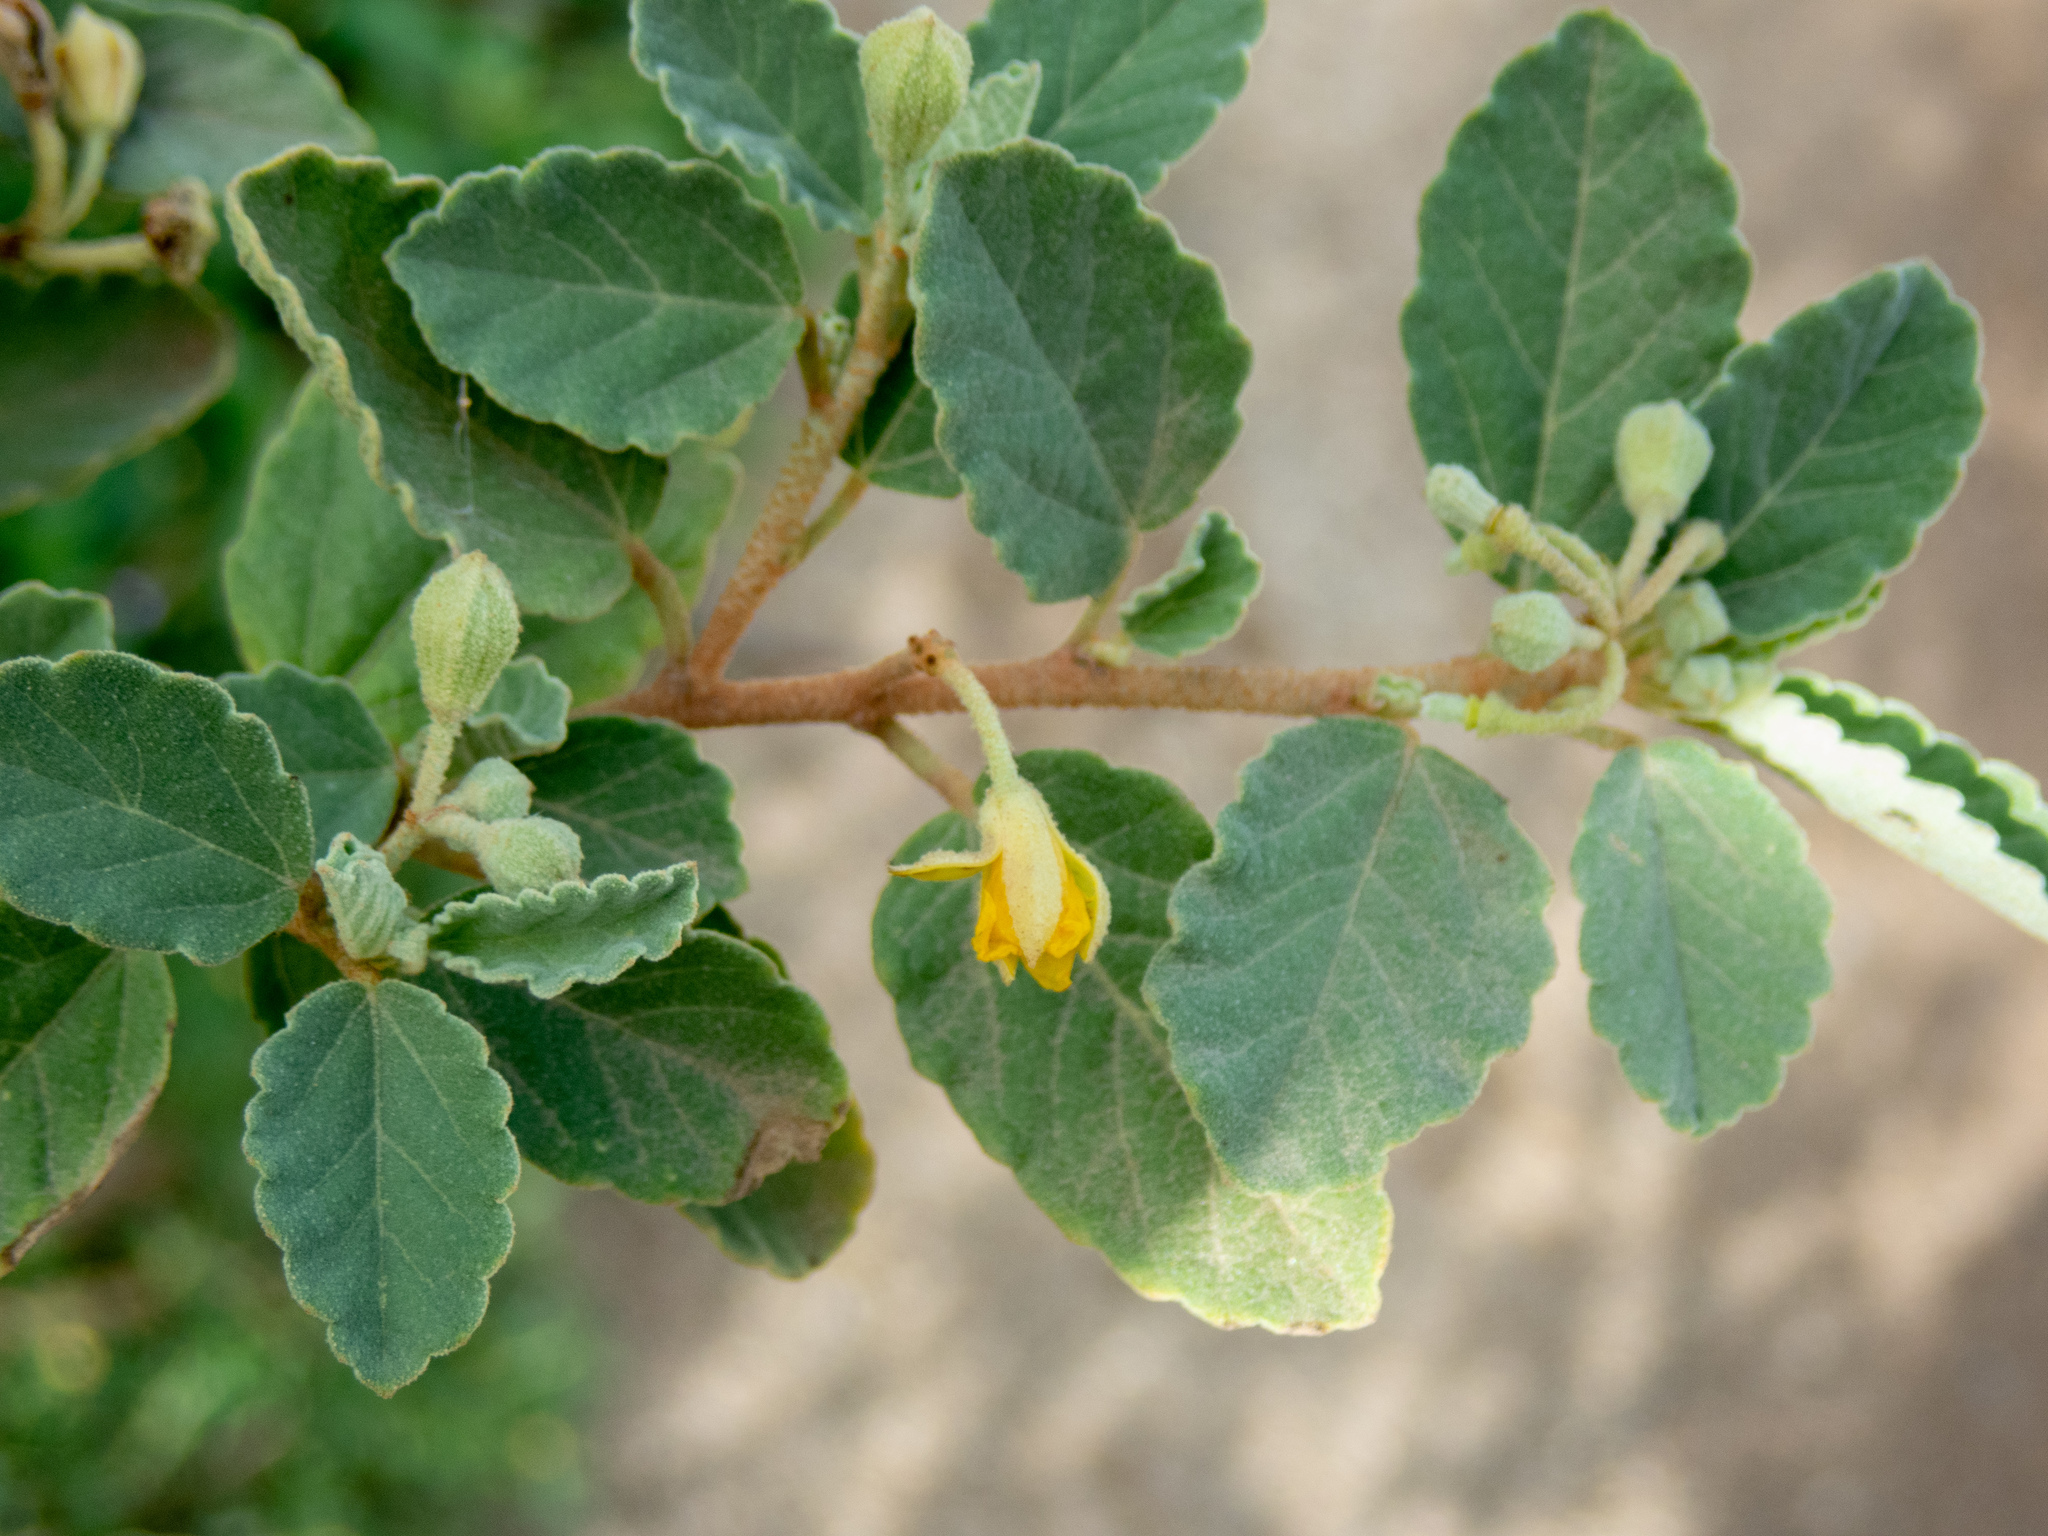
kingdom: Plantae
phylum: Tracheophyta
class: Magnoliopsida
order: Malvales
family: Malvaceae
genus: Corchorus
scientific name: Corchorus hirsutus
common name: Jackswitch
